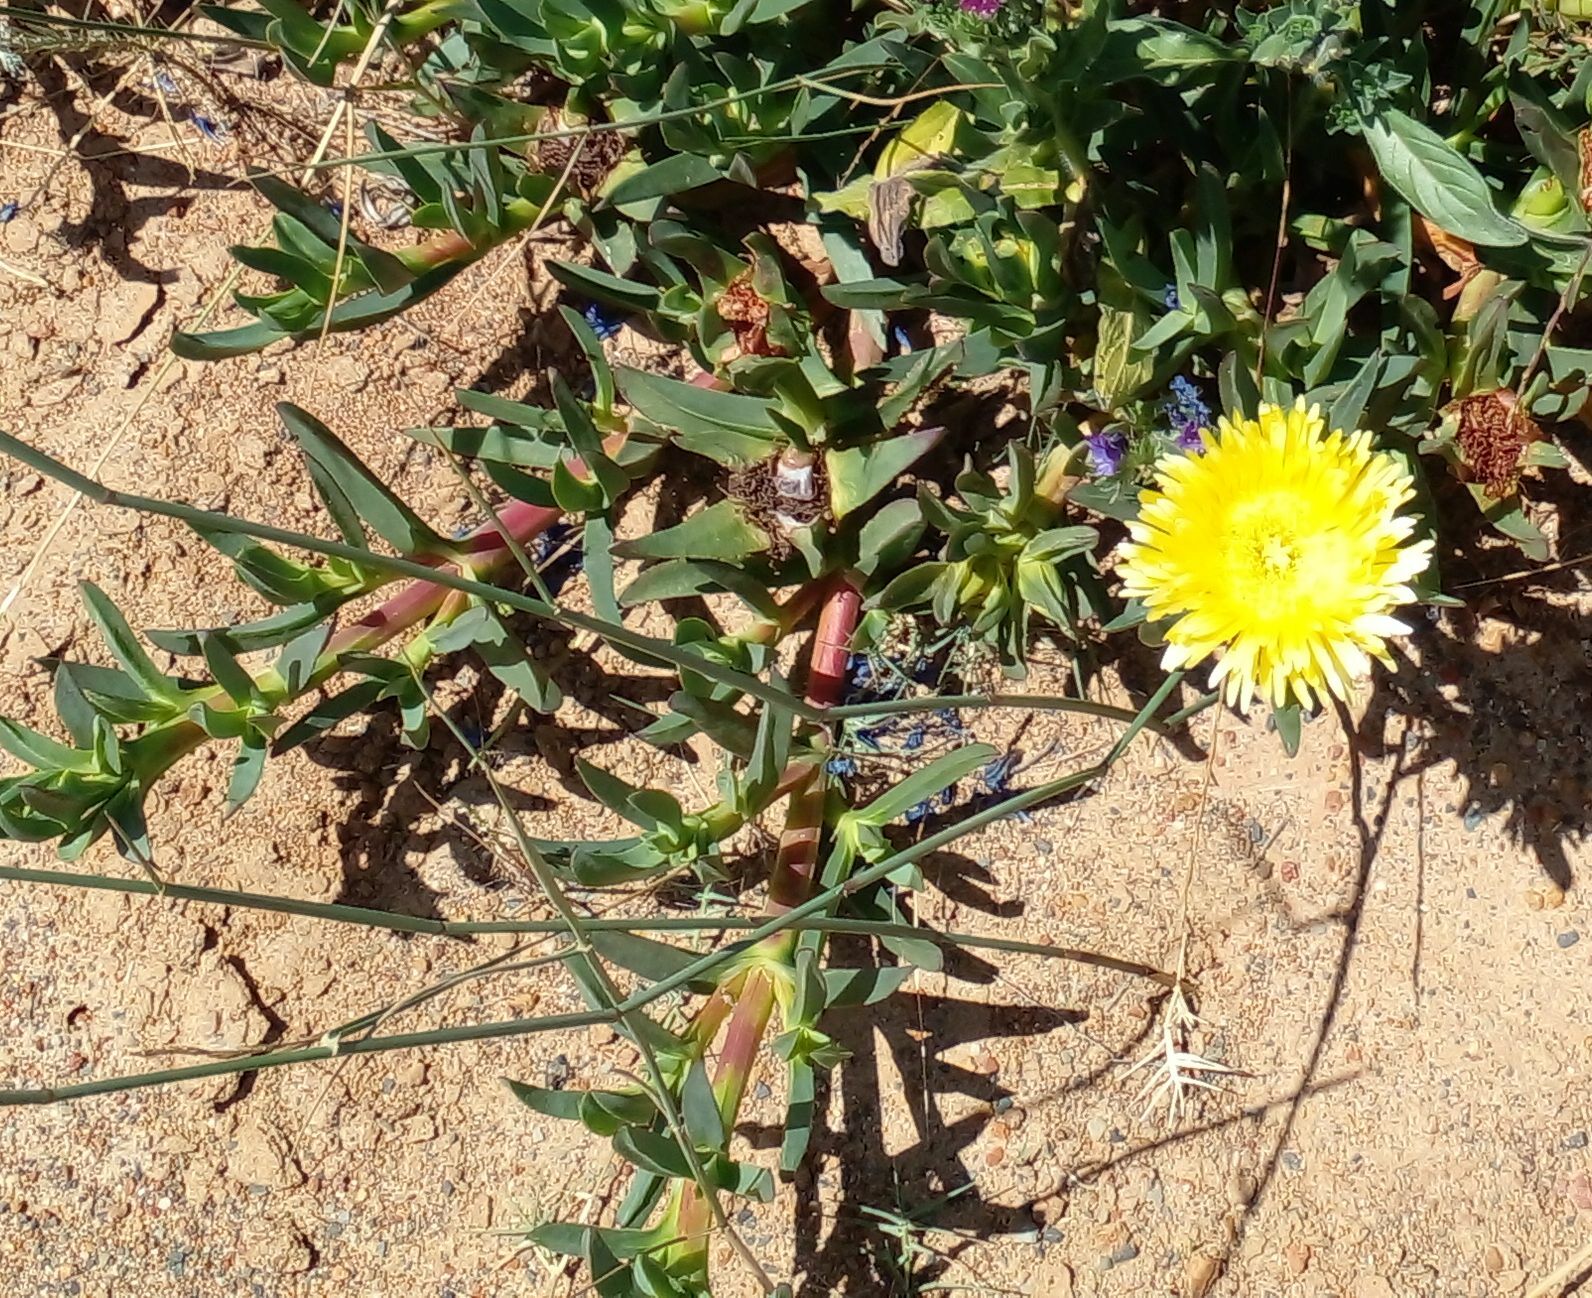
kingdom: Plantae
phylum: Tracheophyta
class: Magnoliopsida
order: Caryophyllales
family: Aizoaceae
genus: Carpobrotus
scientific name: Carpobrotus edulis
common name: Hottentot-fig
